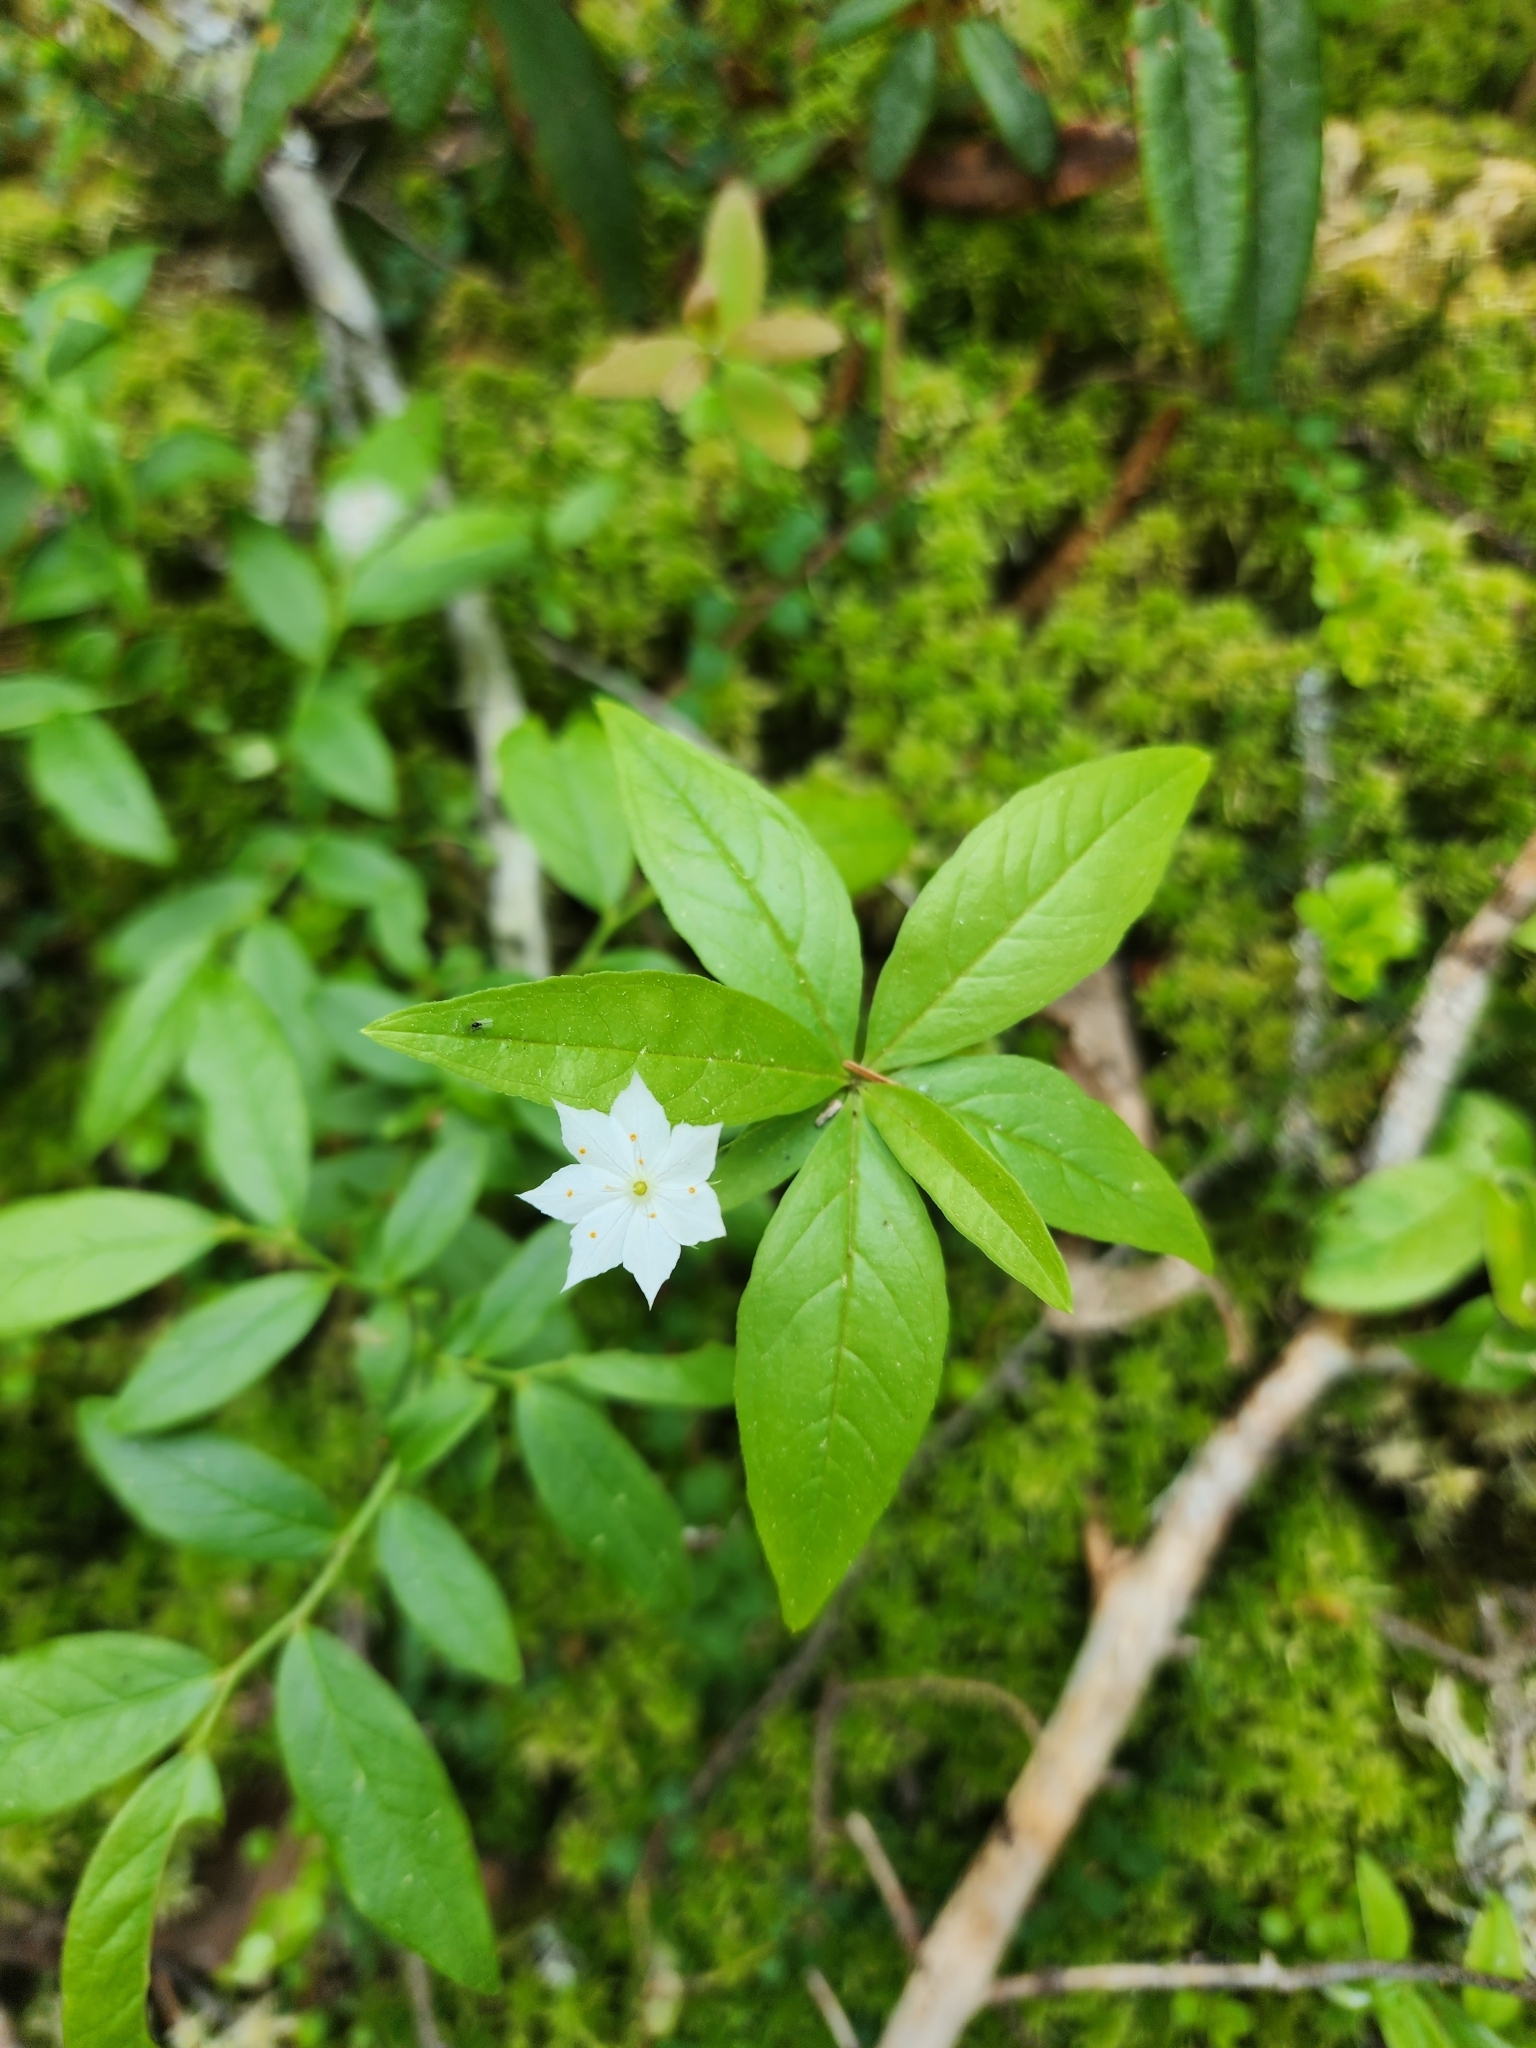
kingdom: Plantae
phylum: Tracheophyta
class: Magnoliopsida
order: Ericales
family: Primulaceae
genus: Lysimachia
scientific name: Lysimachia borealis
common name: American starflower
